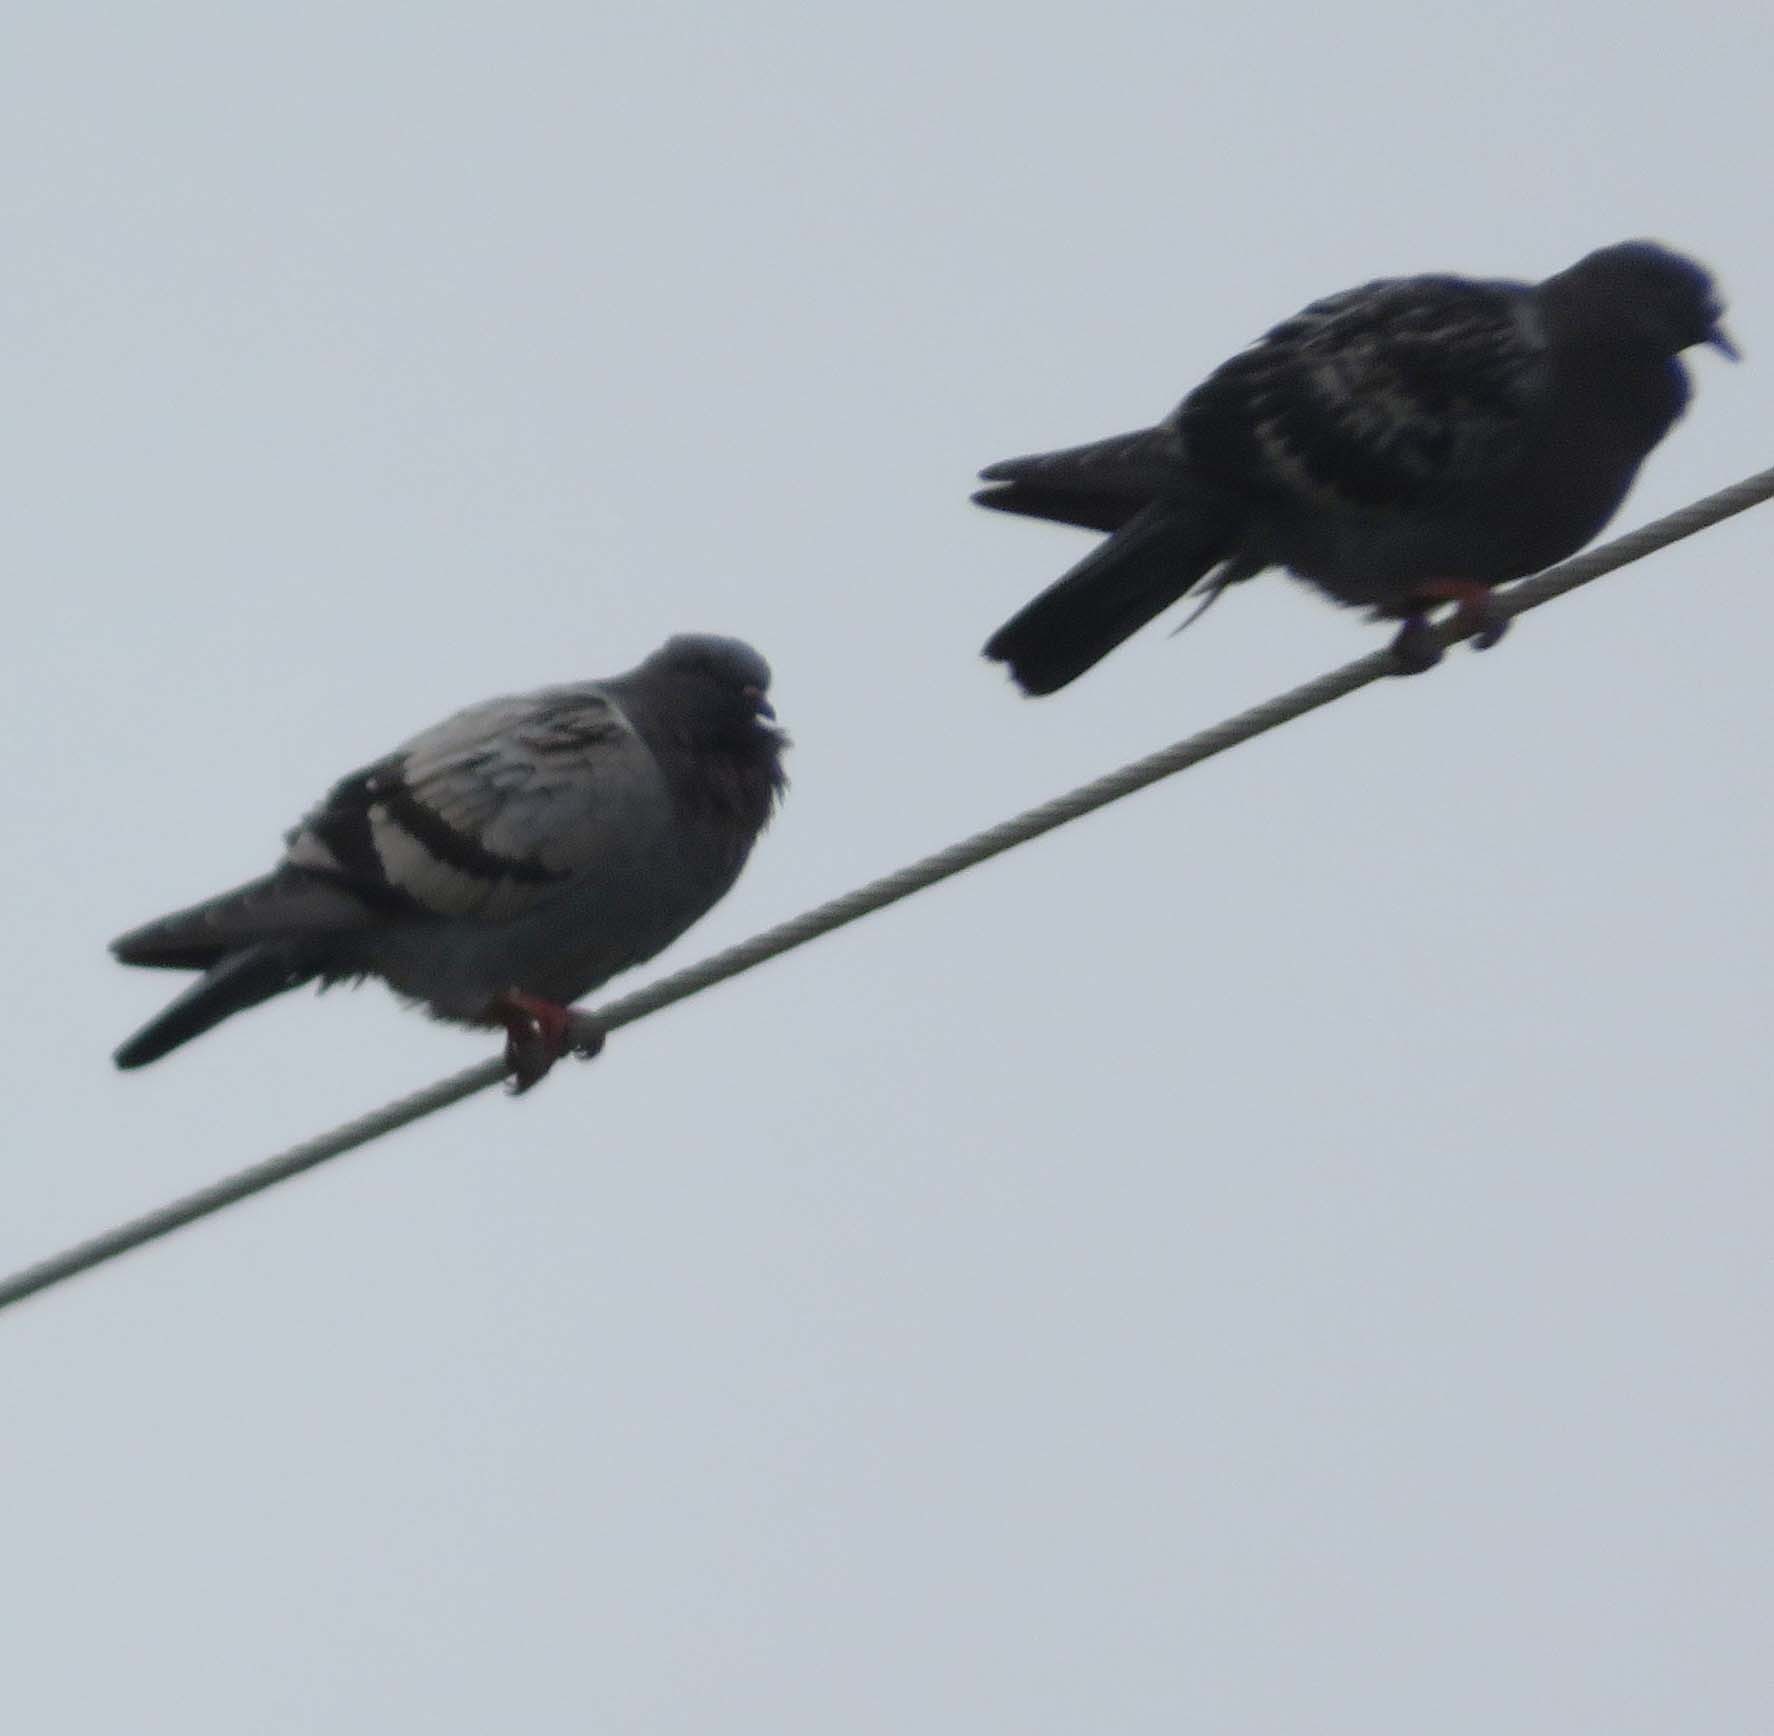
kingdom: Animalia
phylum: Chordata
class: Aves
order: Columbiformes
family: Columbidae
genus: Columba
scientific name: Columba livia
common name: Rock pigeon
